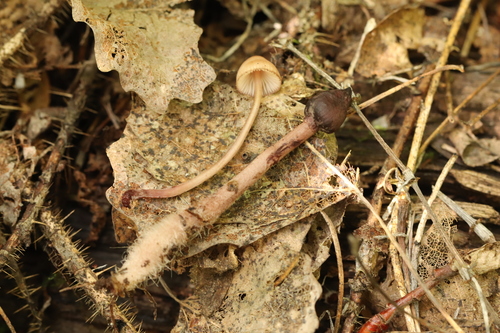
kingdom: Fungi
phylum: Basidiomycota
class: Agaricomycetes
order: Agaricales
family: Mycenaceae
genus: Mycena
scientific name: Mycena haematopus
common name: Burgundydrop bonnet
